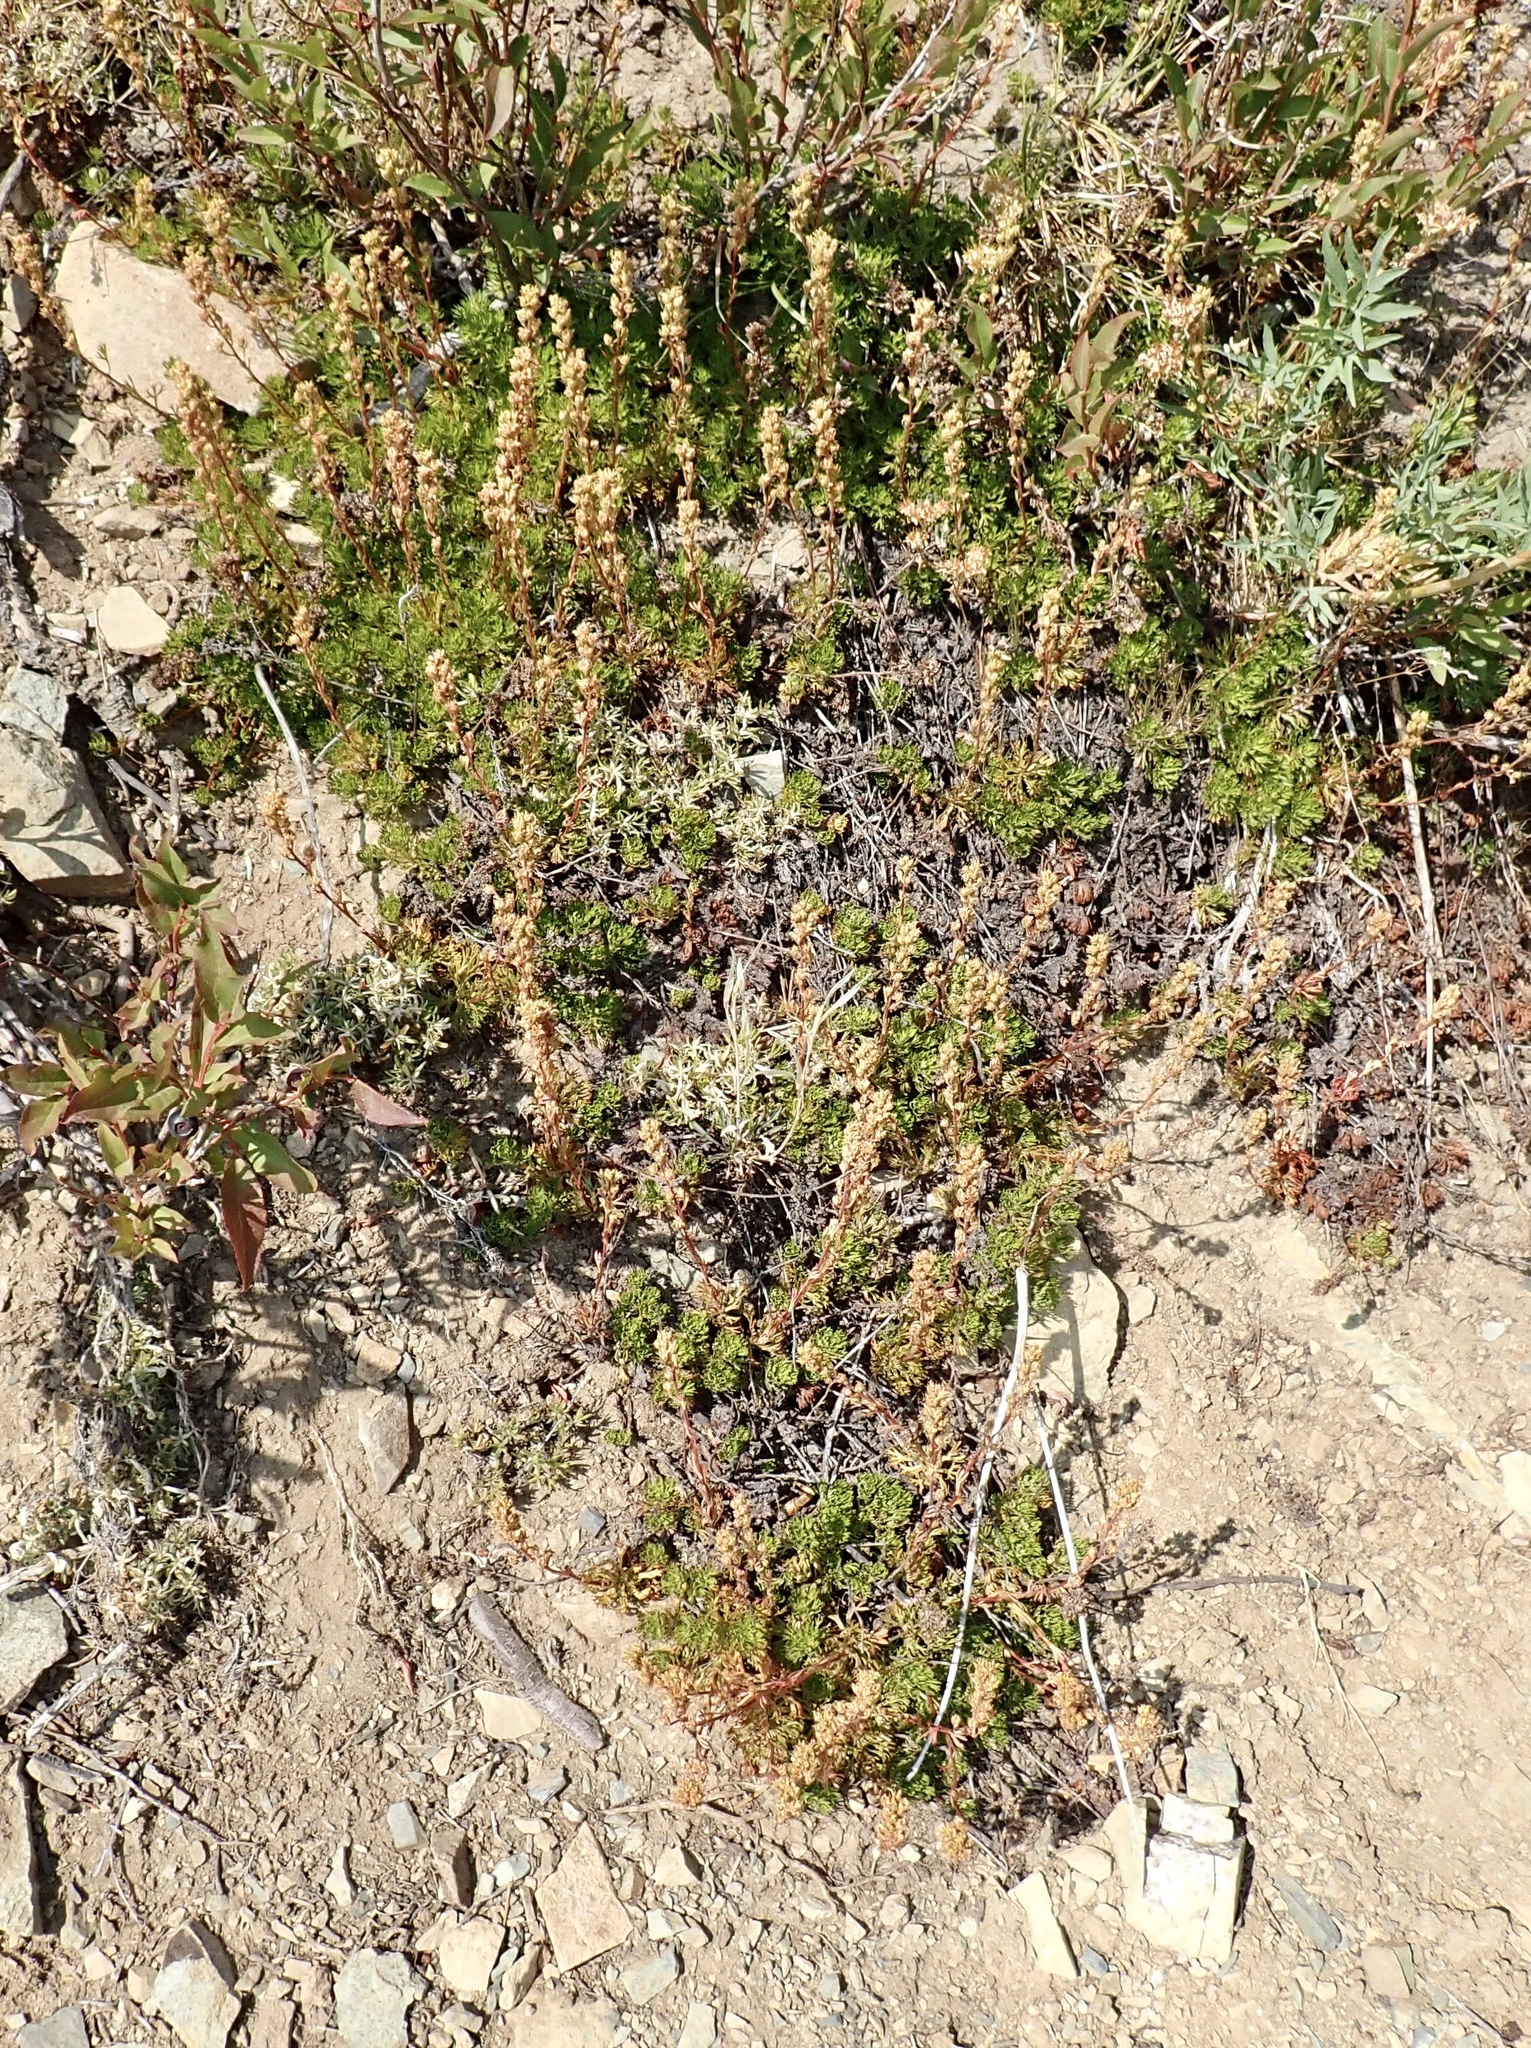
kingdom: Plantae
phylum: Tracheophyta
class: Magnoliopsida
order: Rosales
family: Rosaceae
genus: Luetkea
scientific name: Luetkea pectinata
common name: Partridgefoot
